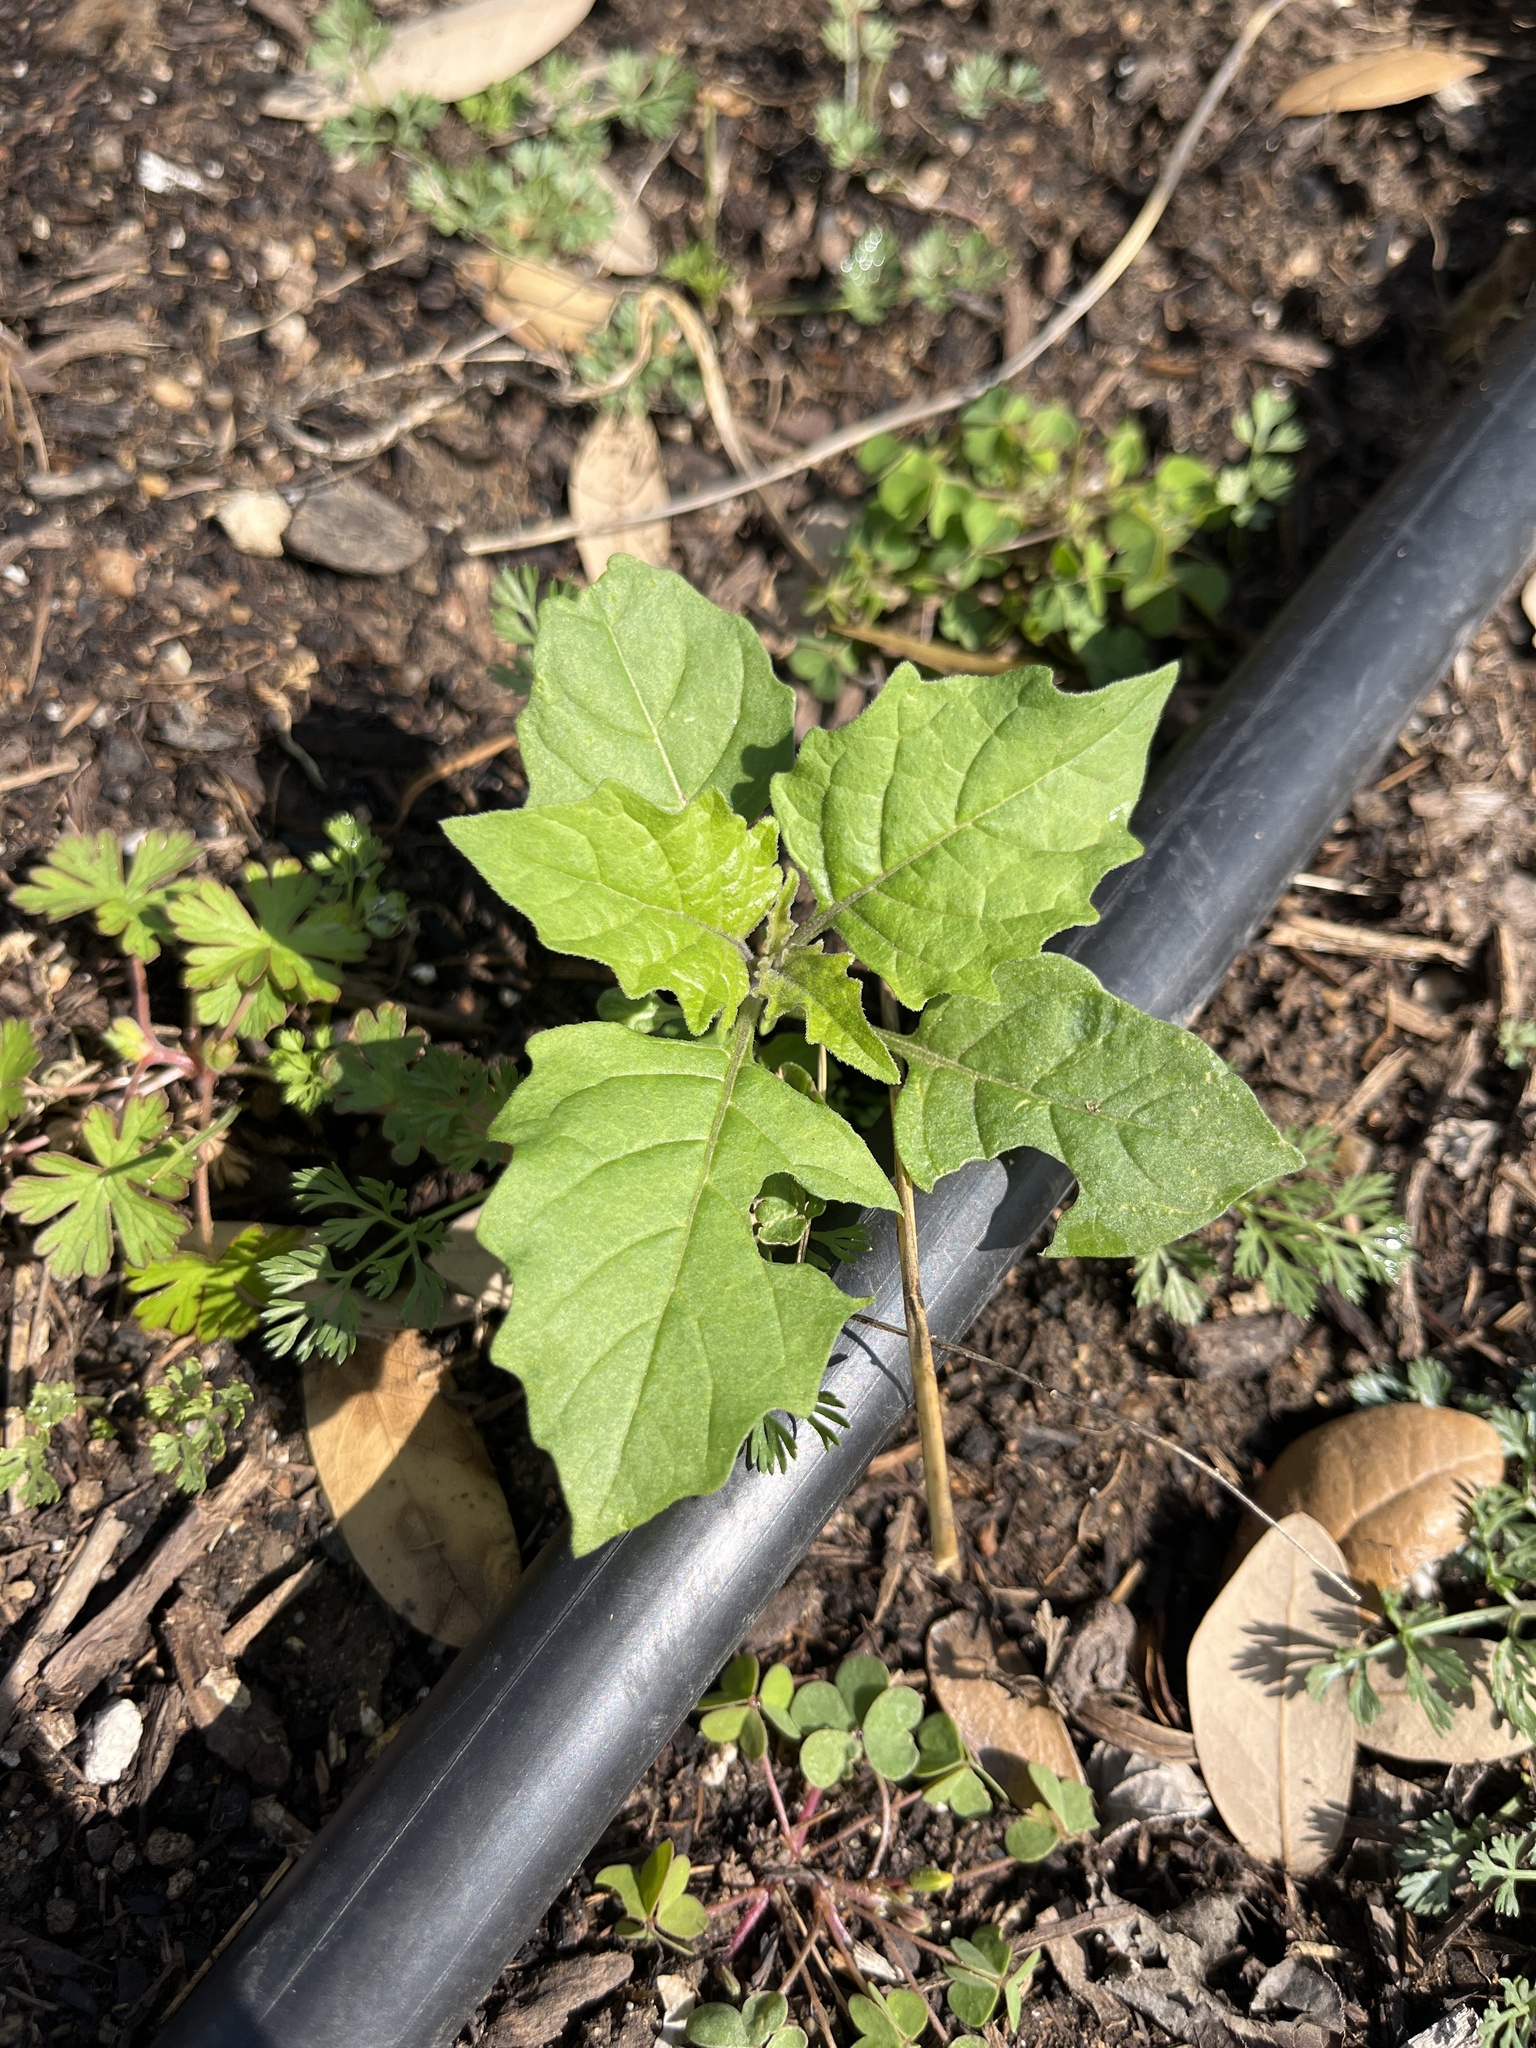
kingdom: Plantae
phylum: Tracheophyta
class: Magnoliopsida
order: Solanales
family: Solanaceae
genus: Solanum
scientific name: Solanum
